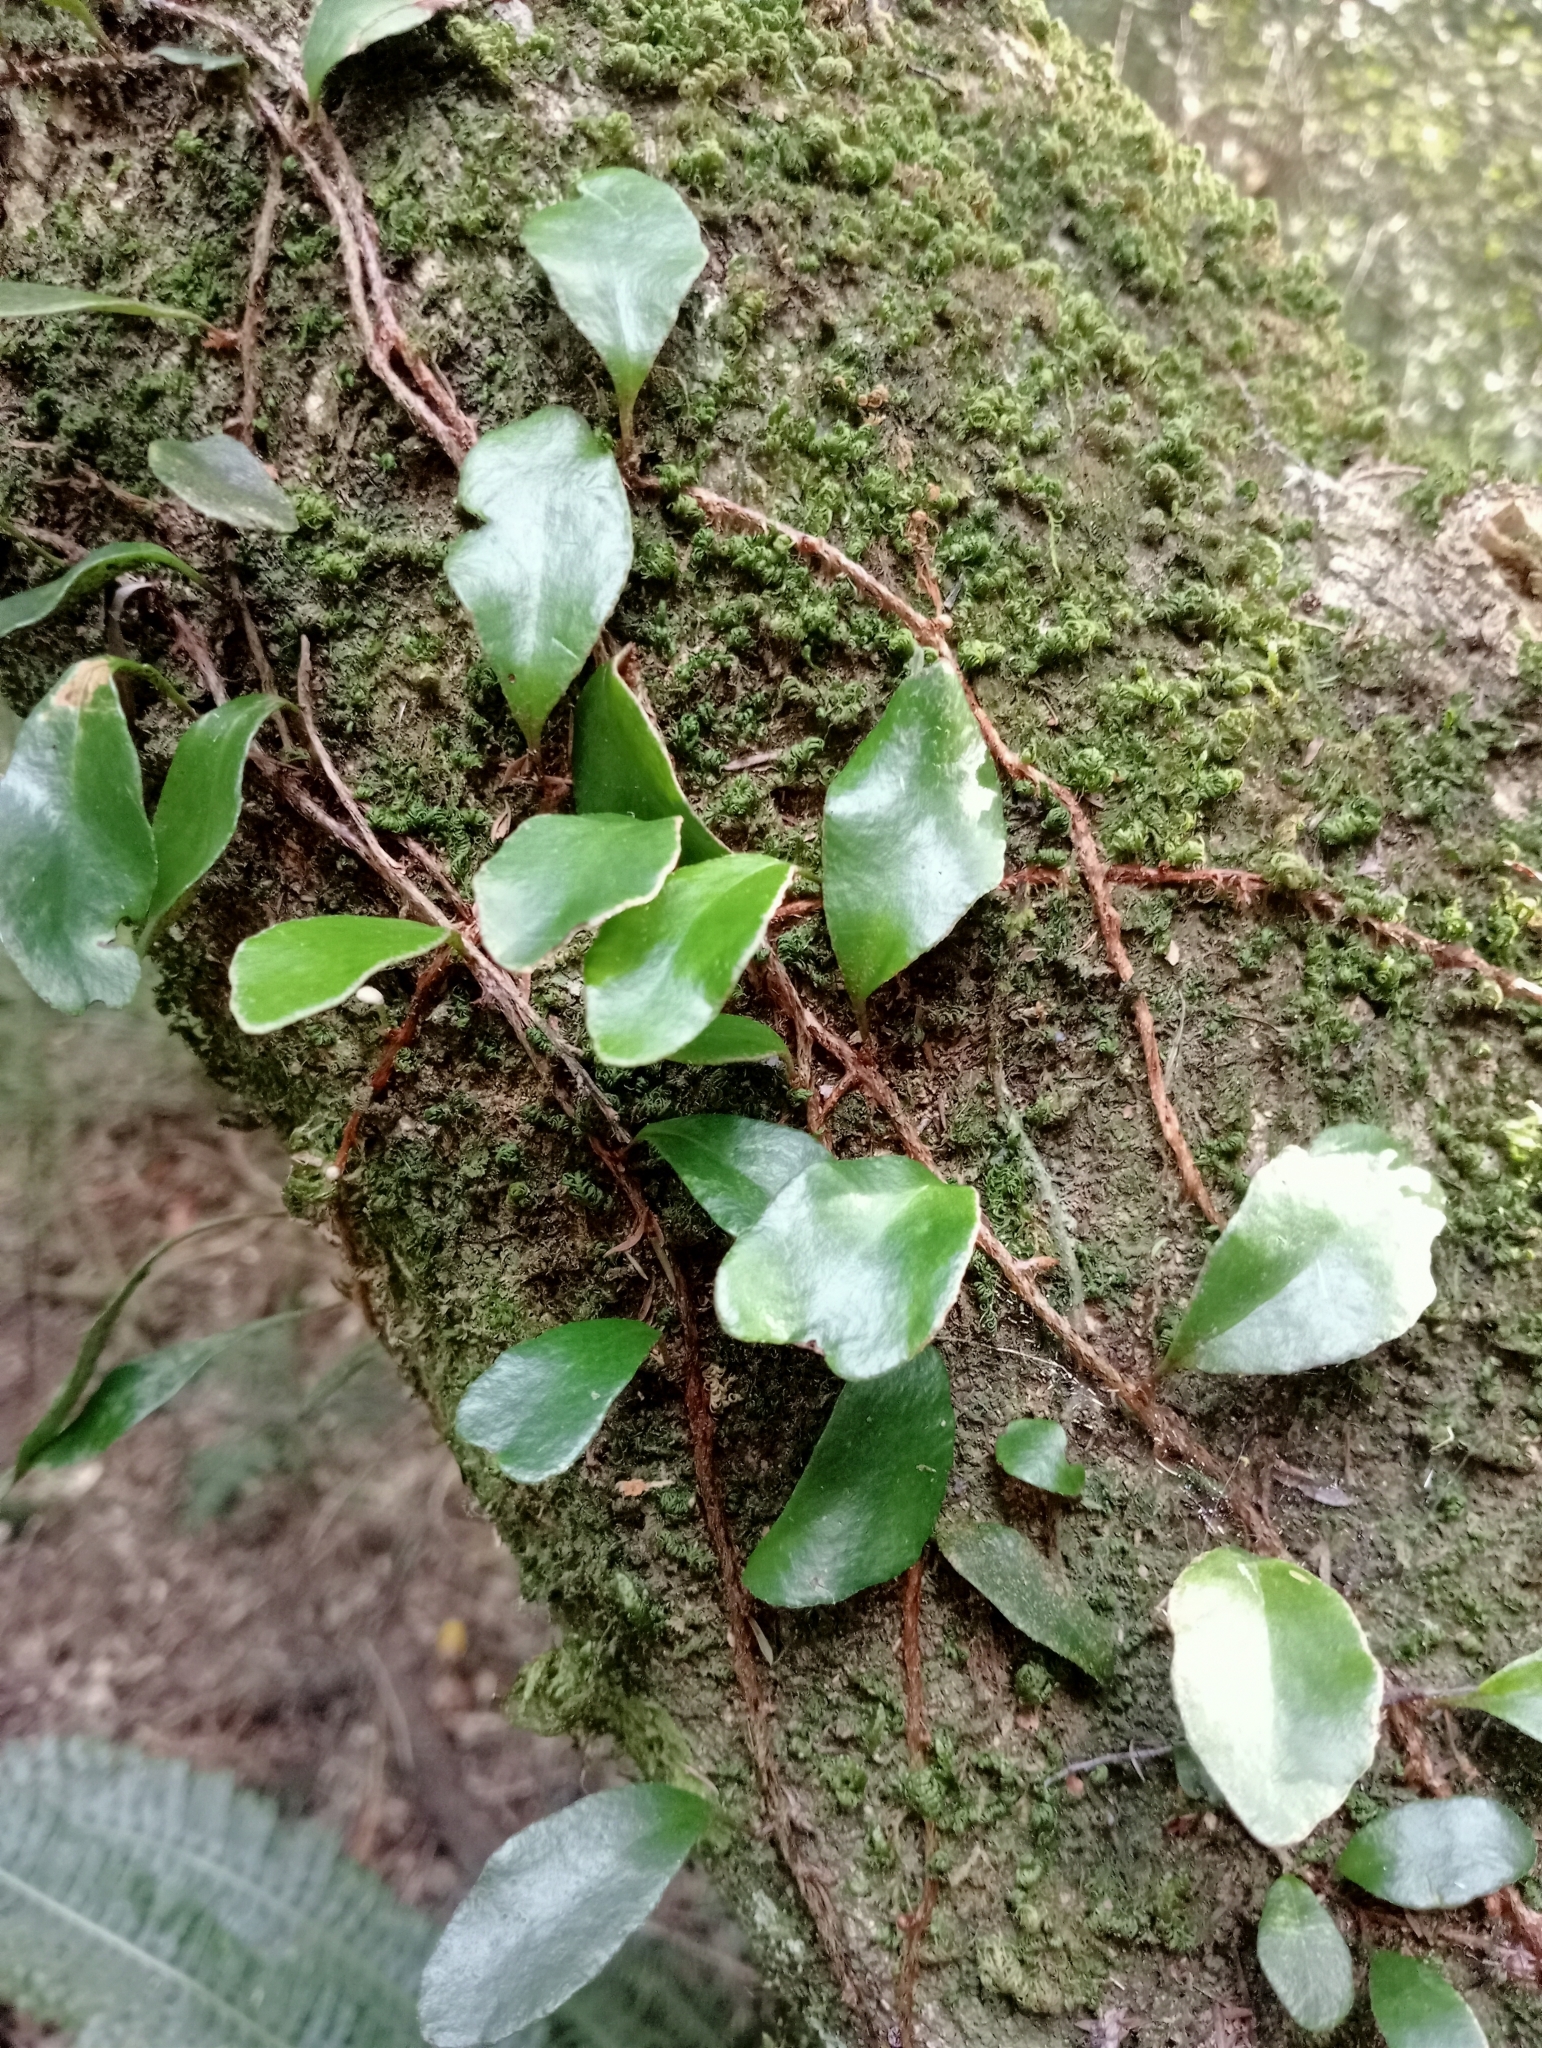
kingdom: Plantae
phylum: Tracheophyta
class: Polypodiopsida
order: Polypodiales
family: Polypodiaceae
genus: Pyrrosia
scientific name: Pyrrosia eleagnifolia
